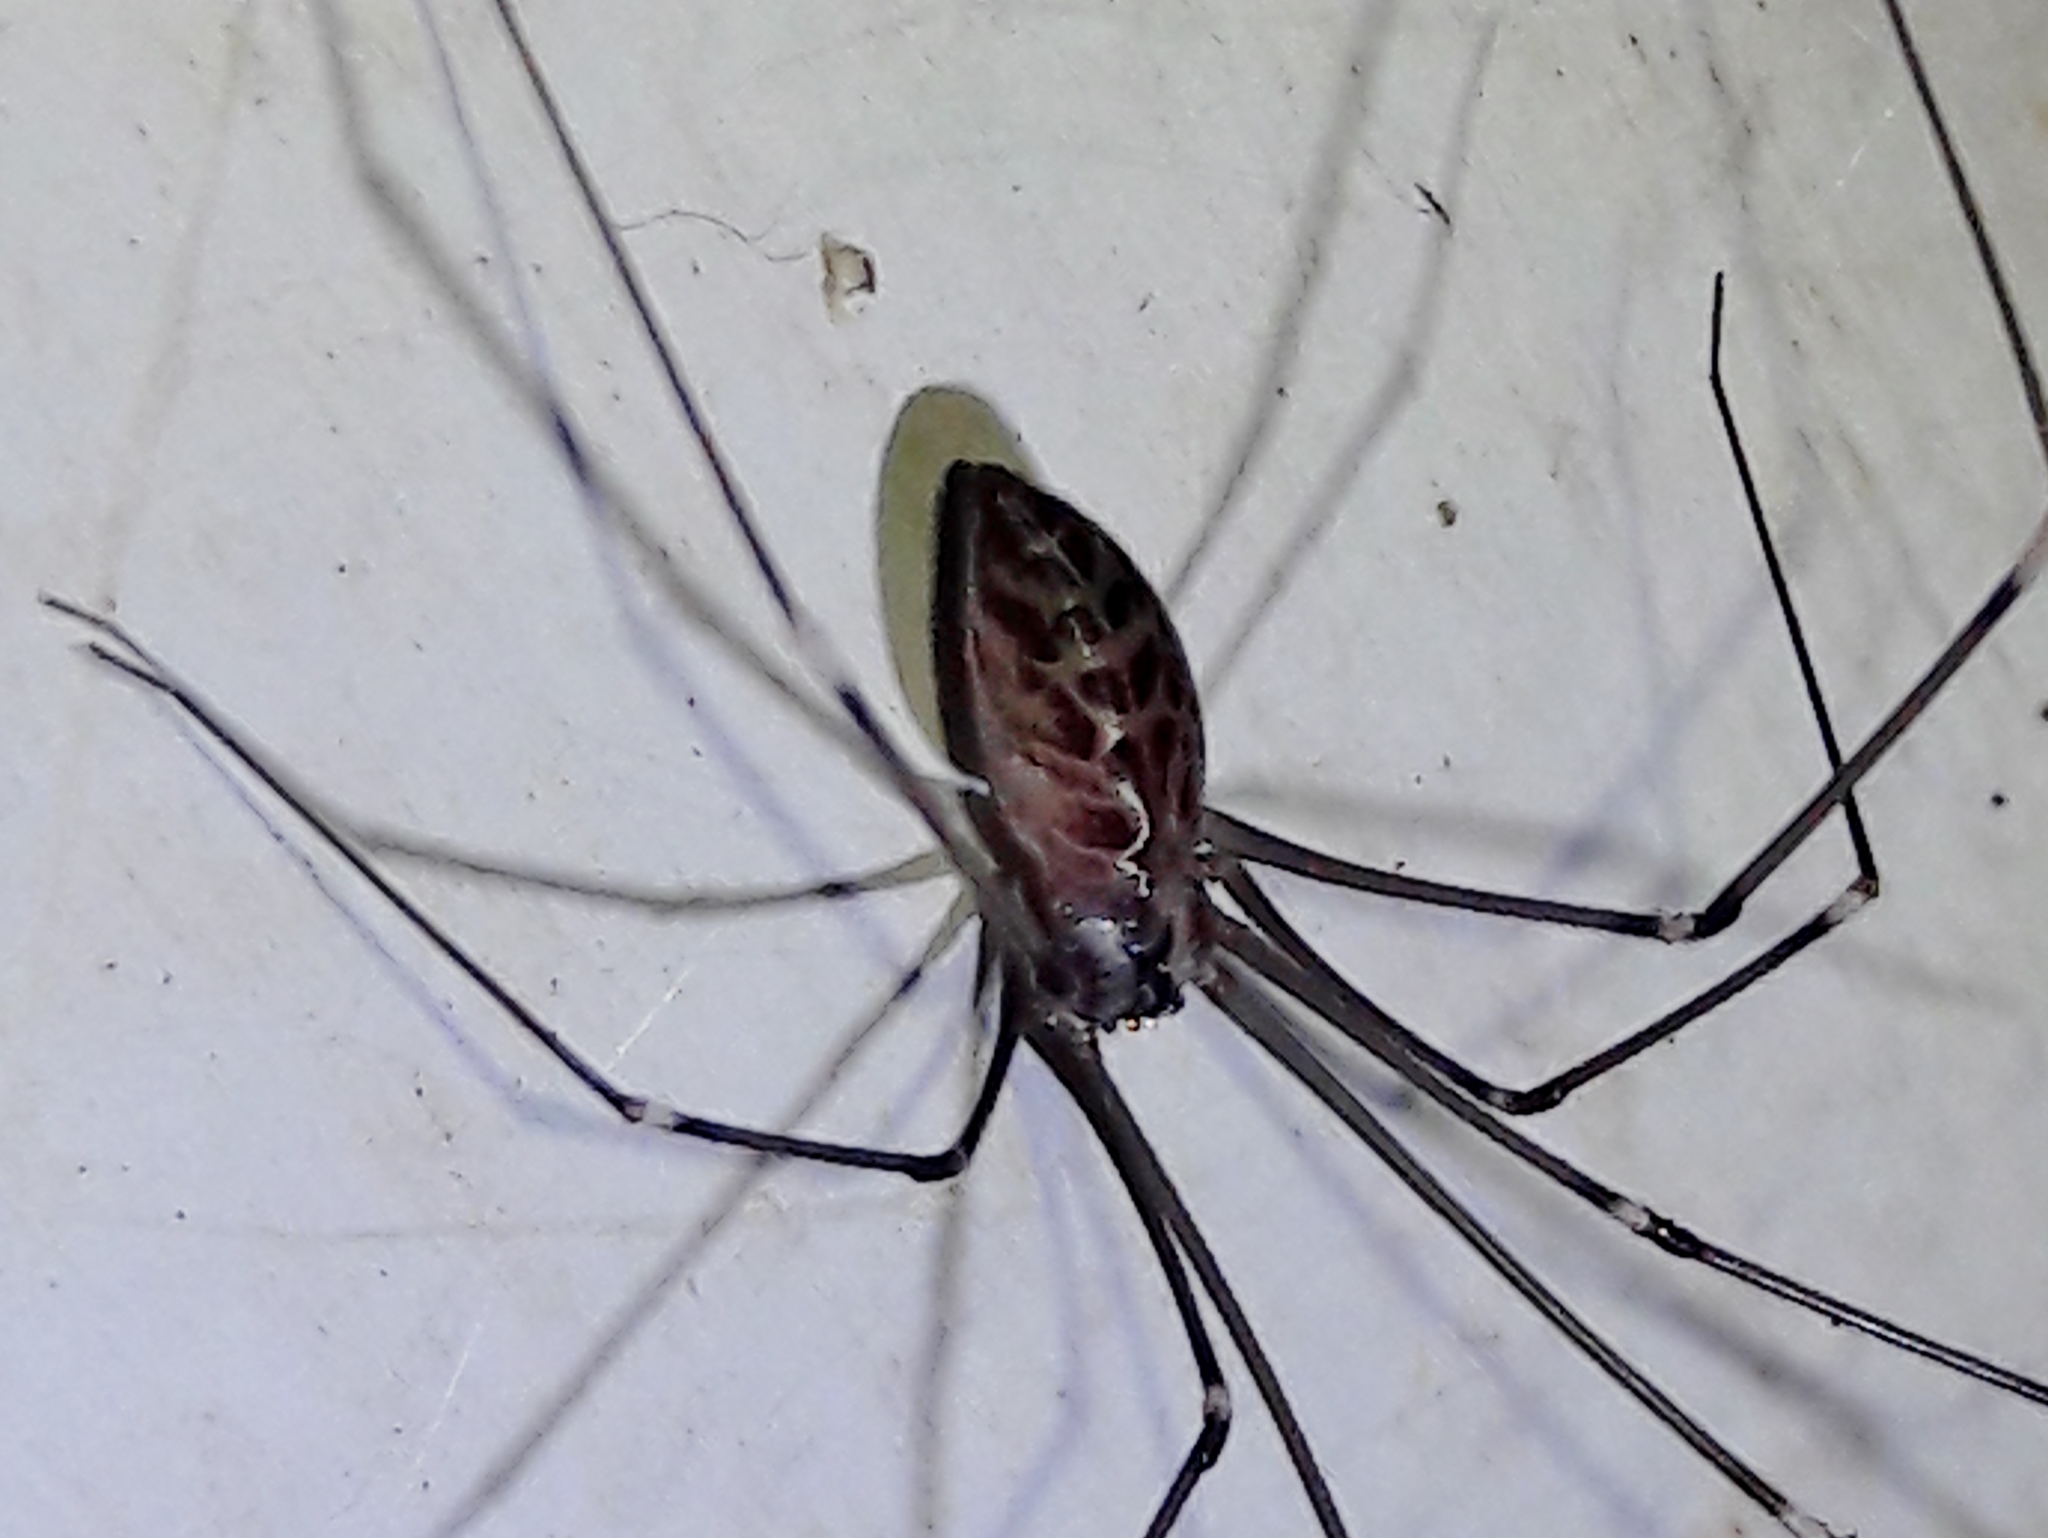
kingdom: Animalia
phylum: Arthropoda
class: Arachnida
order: Araneae
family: Pholcidae
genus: Smeringopus
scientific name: Smeringopus pallidus
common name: Cellar spider
